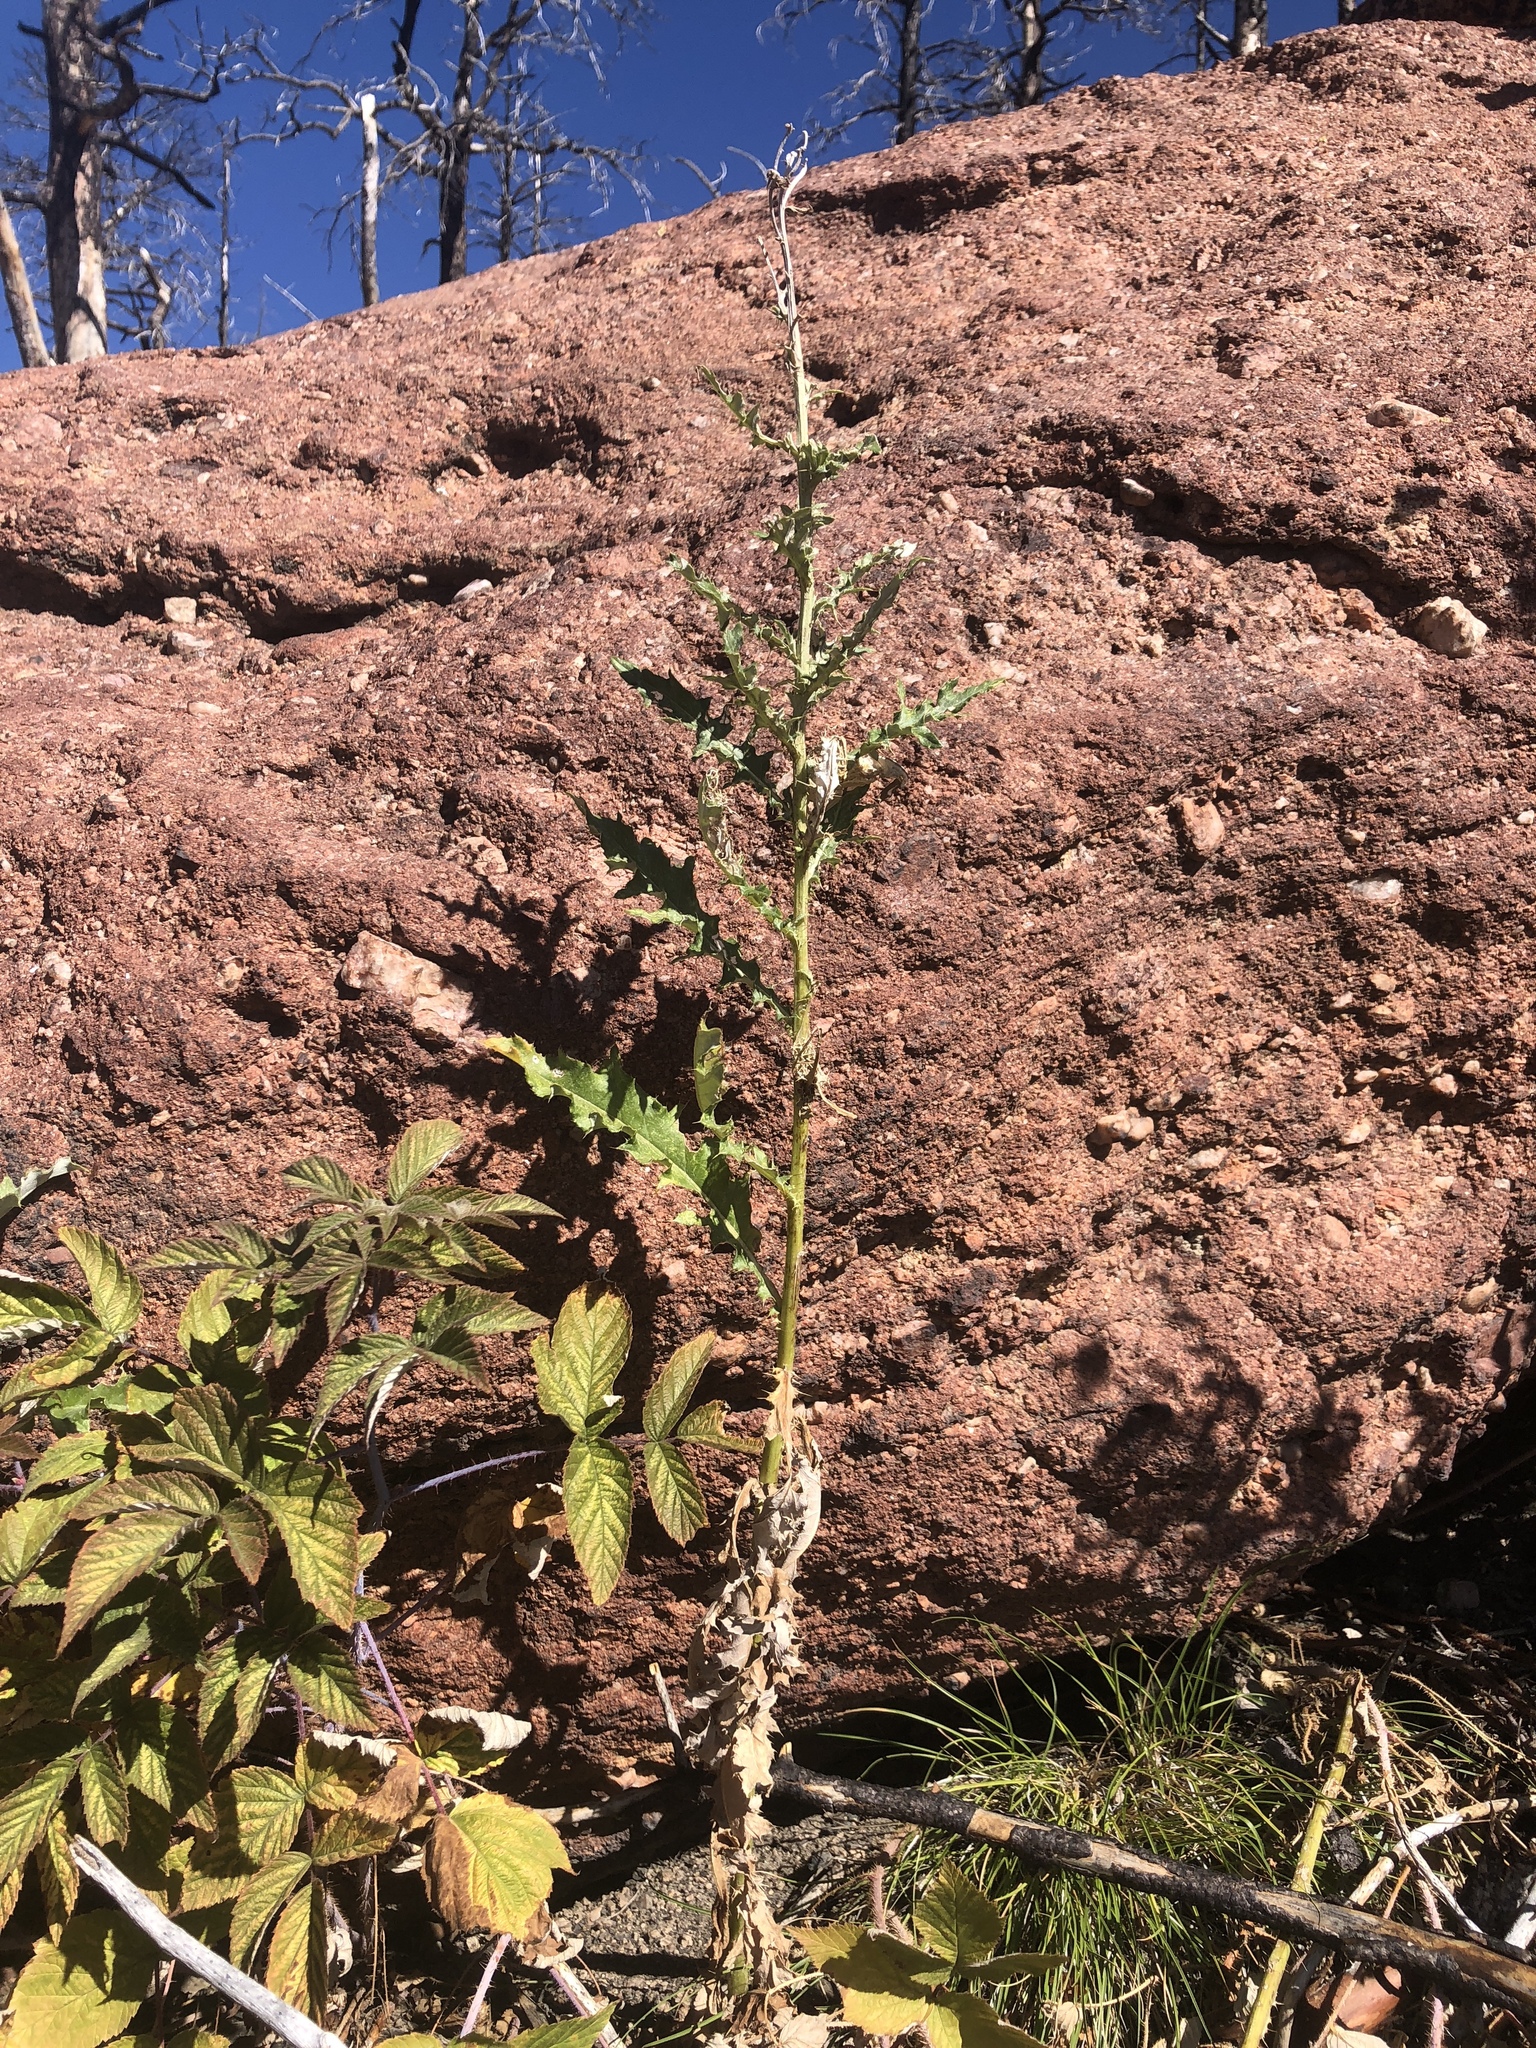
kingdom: Plantae
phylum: Tracheophyta
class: Magnoliopsida
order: Asterales
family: Asteraceae
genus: Cirsium
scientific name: Cirsium arvense
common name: Creeping thistle
